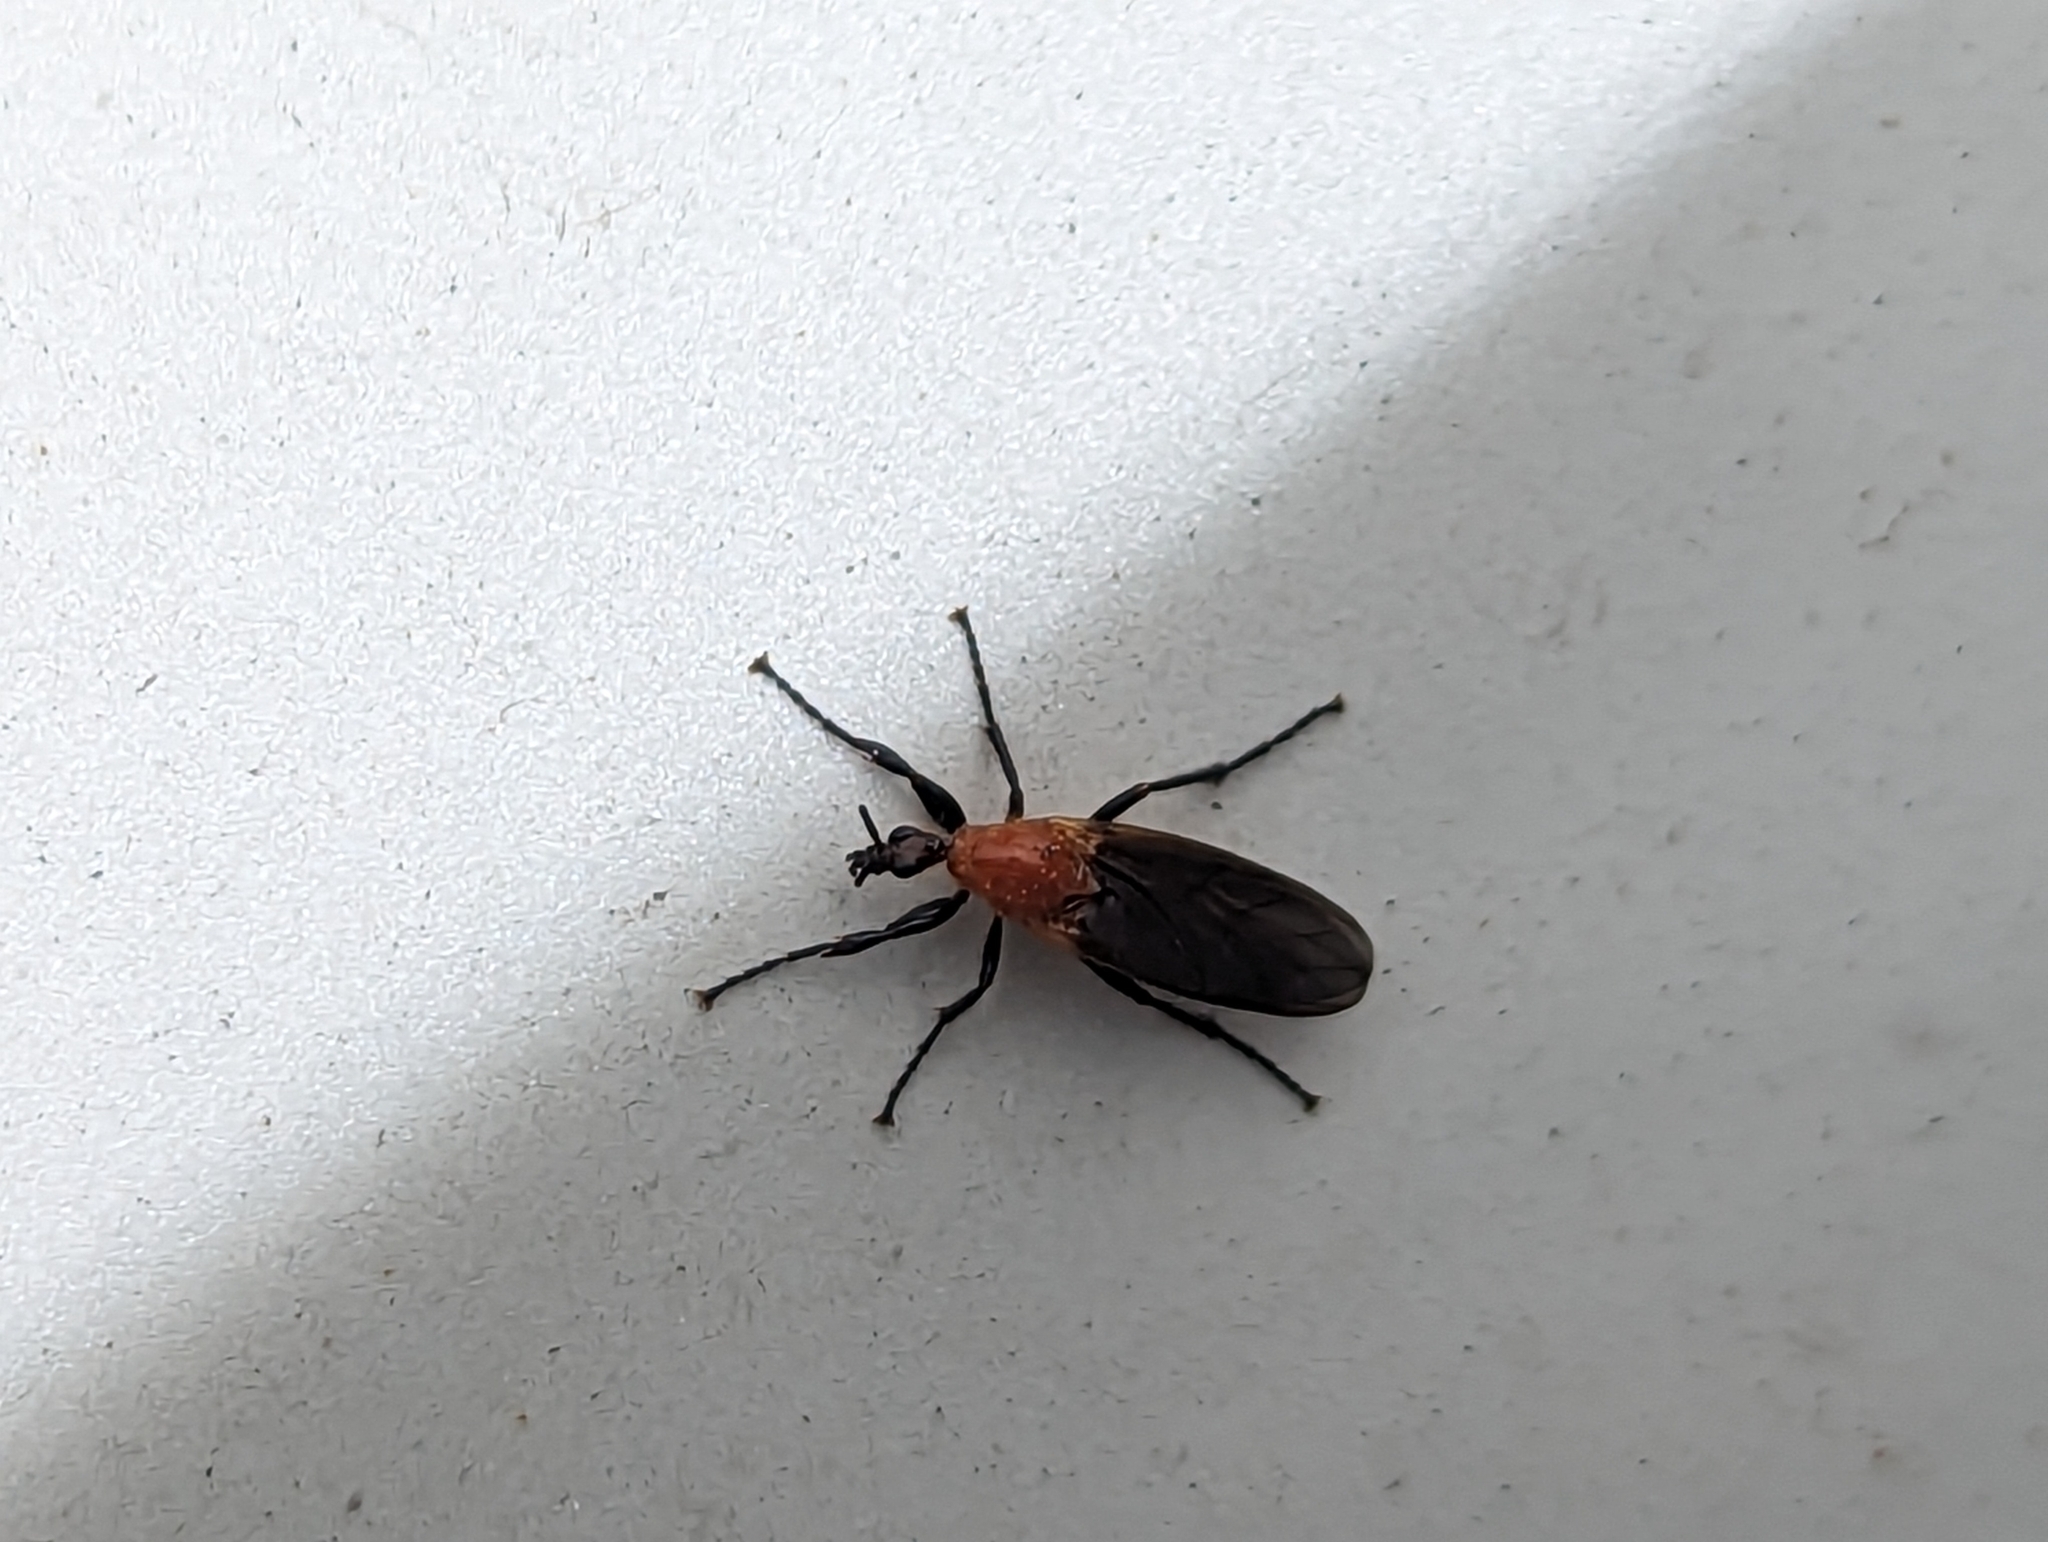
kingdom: Animalia
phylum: Arthropoda
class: Insecta
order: Diptera
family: Bibionidae
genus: Bibio
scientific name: Bibio imitator
